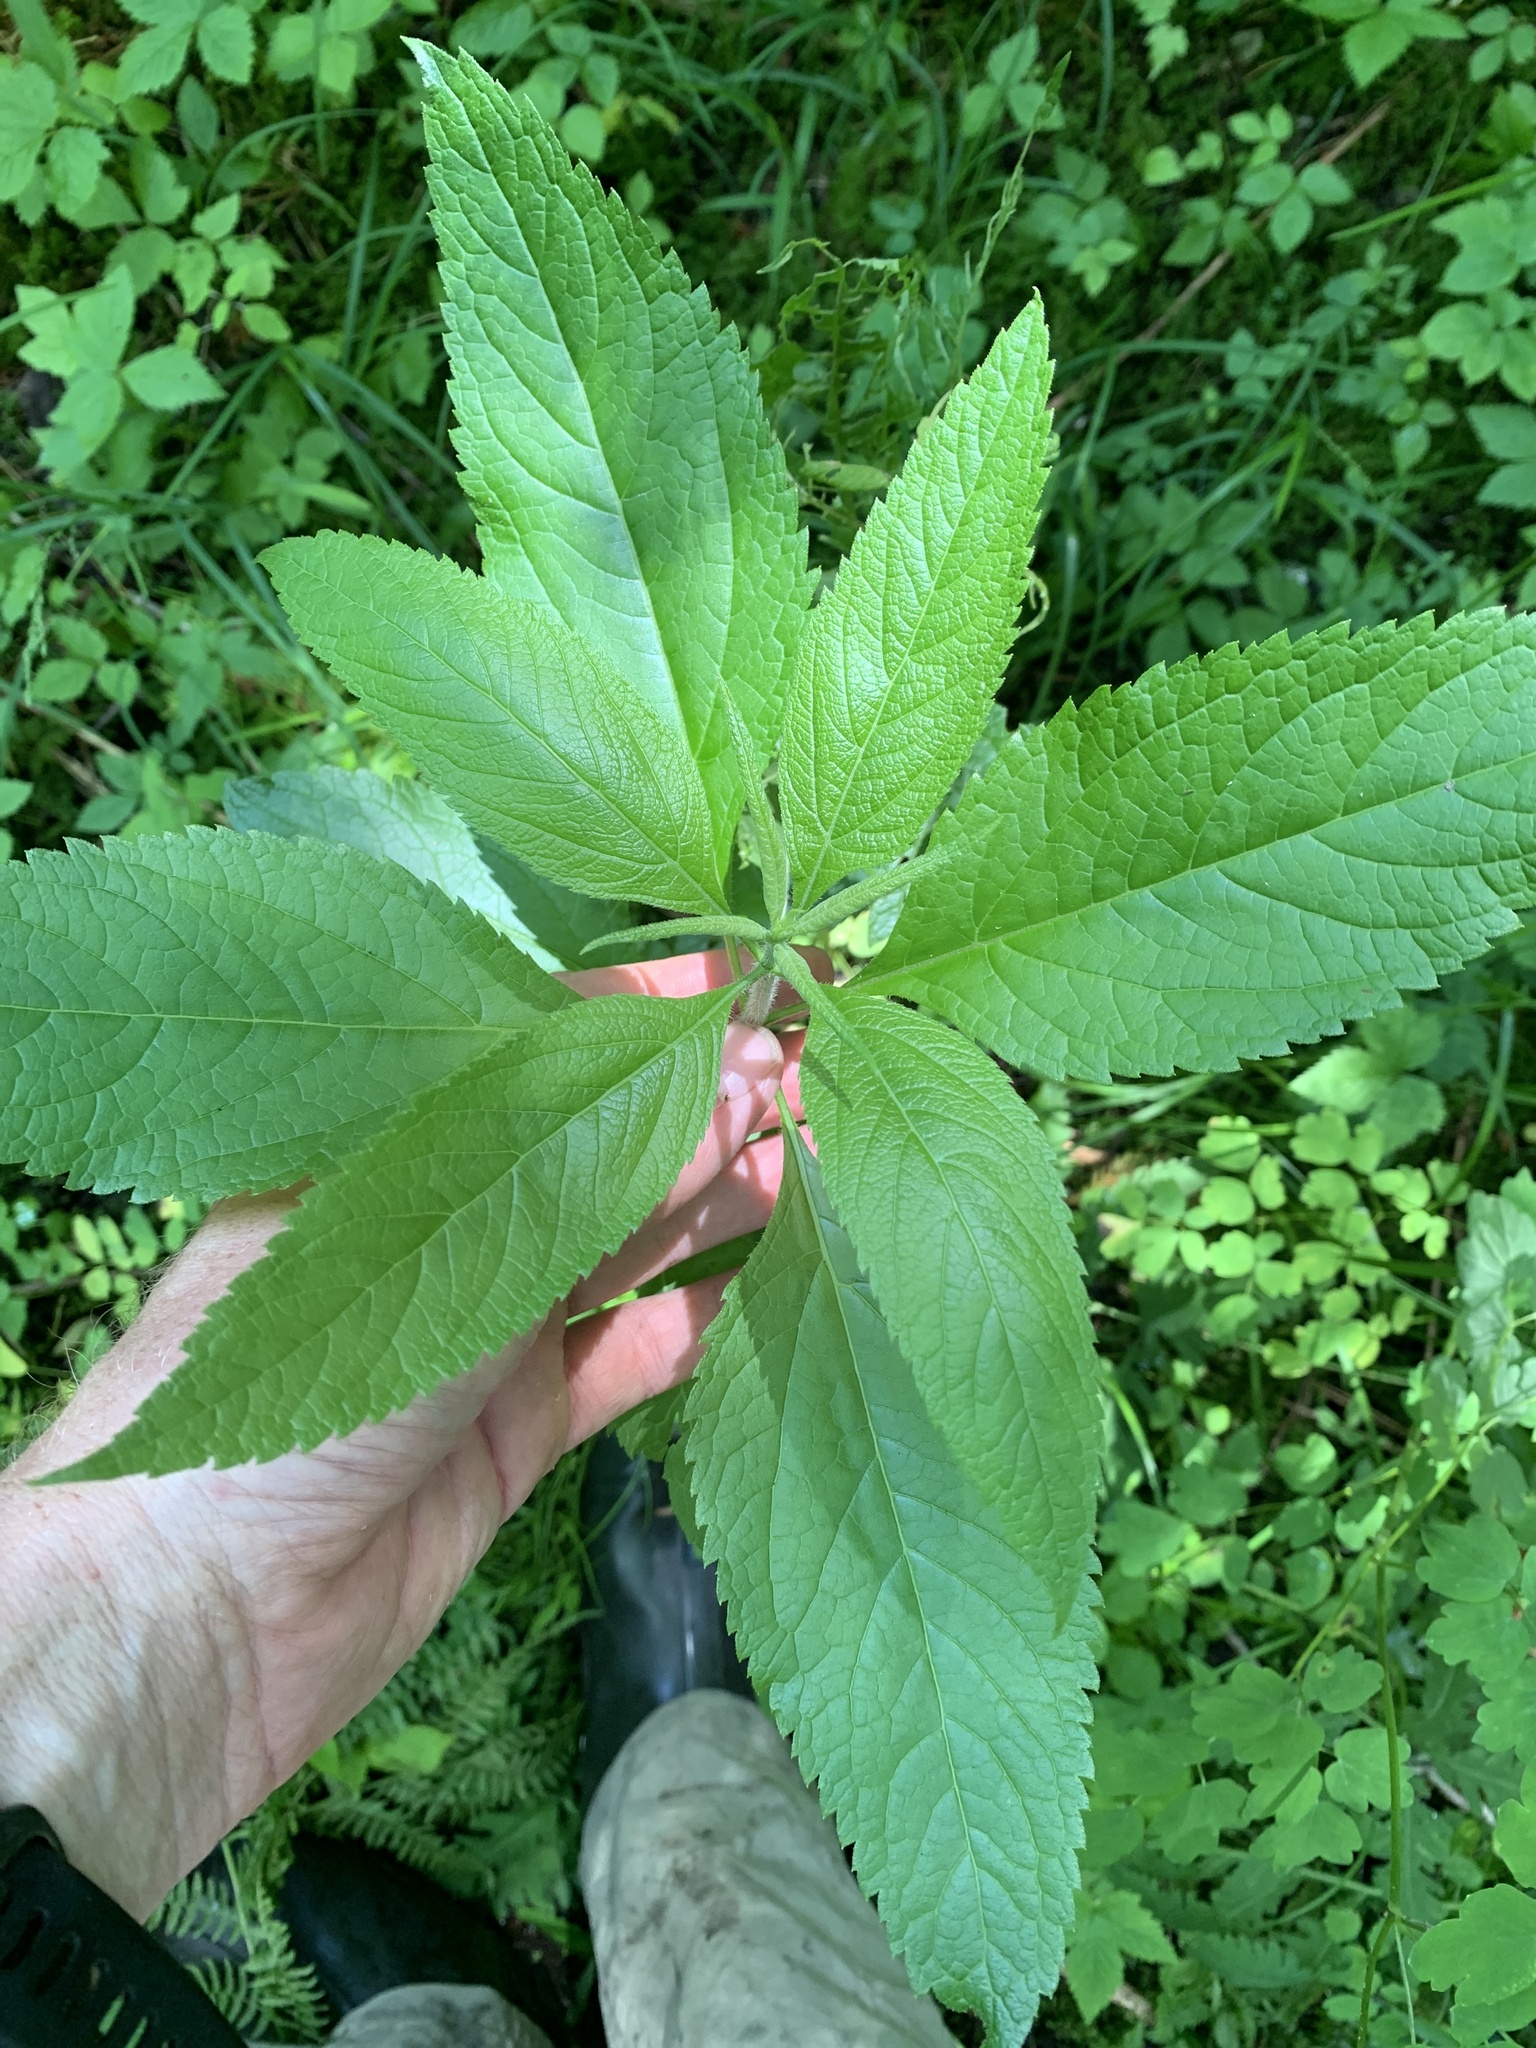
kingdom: Plantae
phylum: Tracheophyta
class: Magnoliopsida
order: Asterales
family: Asteraceae
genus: Eutrochium
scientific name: Eutrochium maculatum
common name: Spotted joe pye weed
